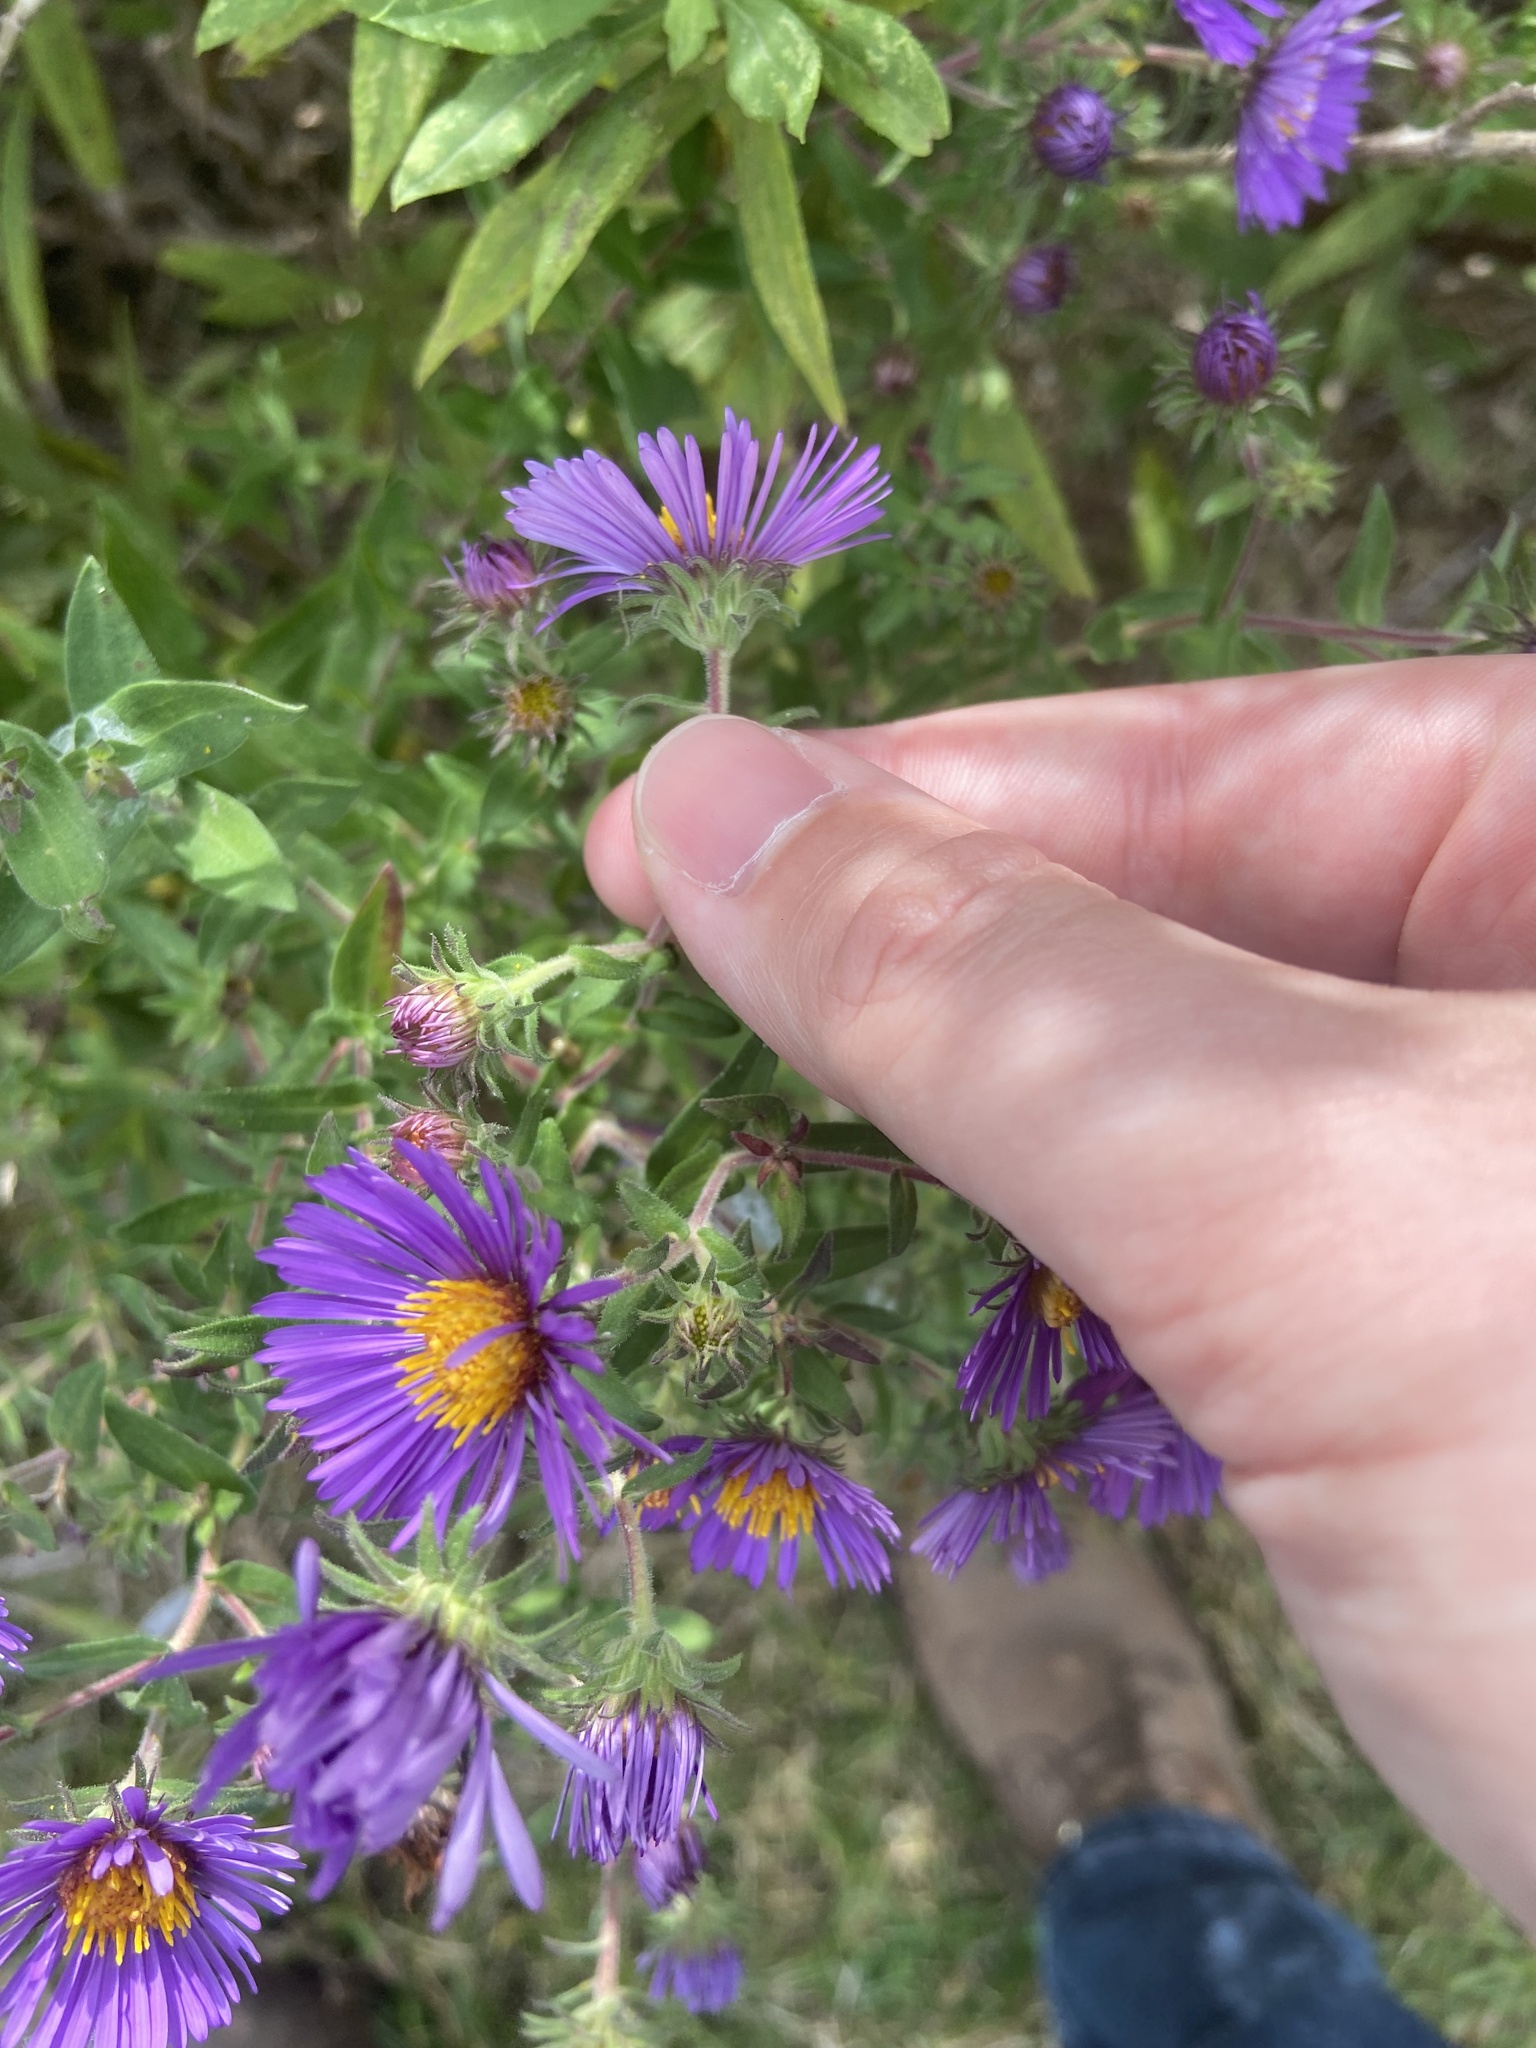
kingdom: Plantae
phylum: Tracheophyta
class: Magnoliopsida
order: Asterales
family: Asteraceae
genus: Symphyotrichum
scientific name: Symphyotrichum novae-angliae
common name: Michaelmas daisy
